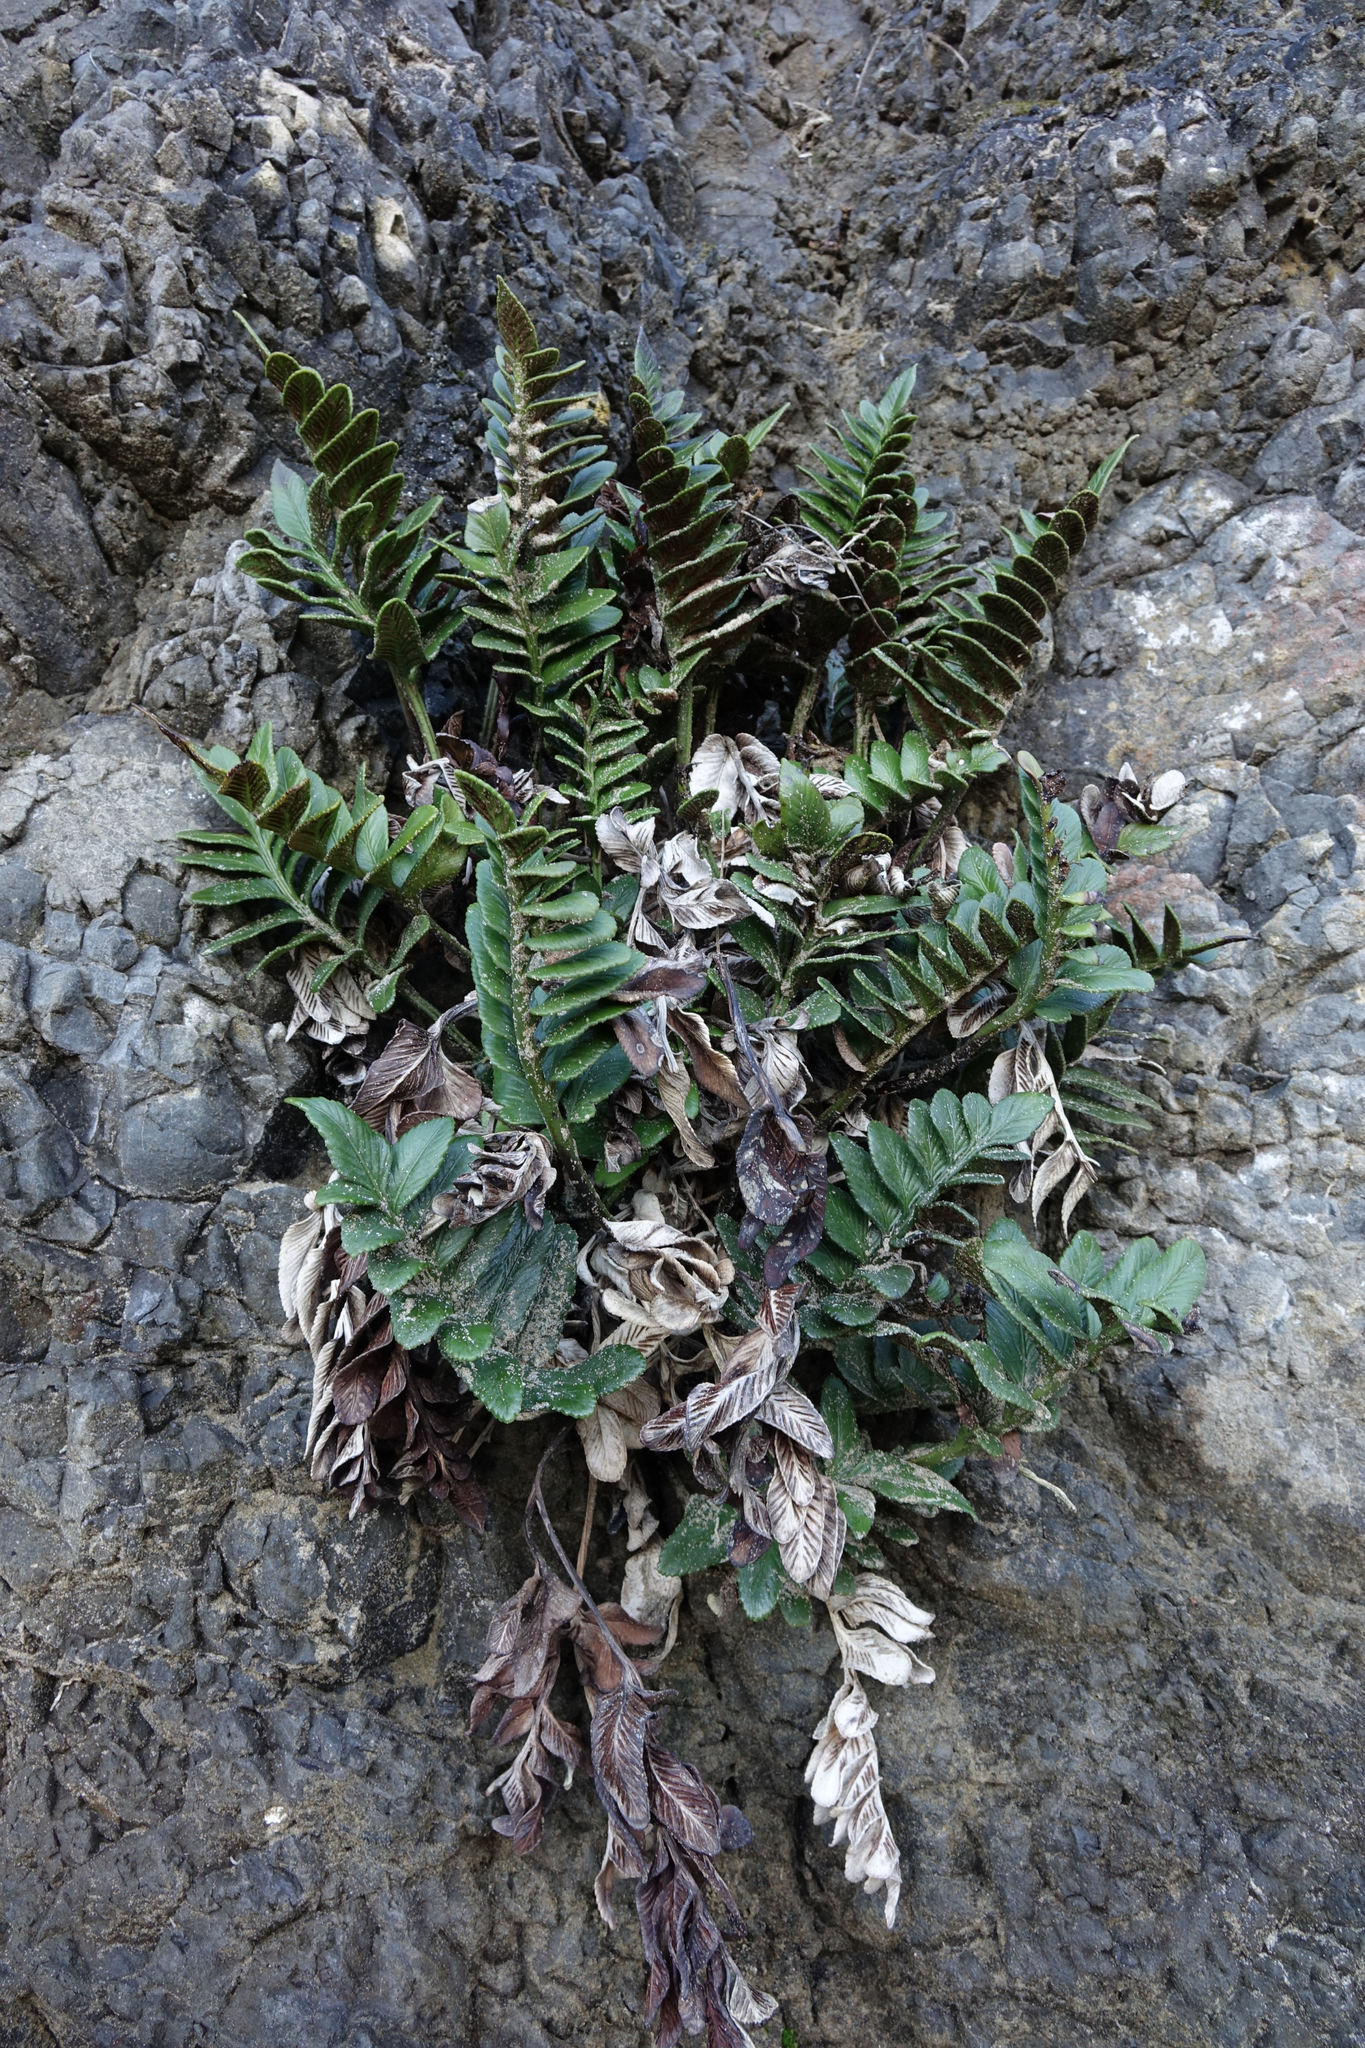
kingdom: Plantae
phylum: Tracheophyta
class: Polypodiopsida
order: Polypodiales
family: Aspleniaceae
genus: Asplenium
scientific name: Asplenium obtusatum
